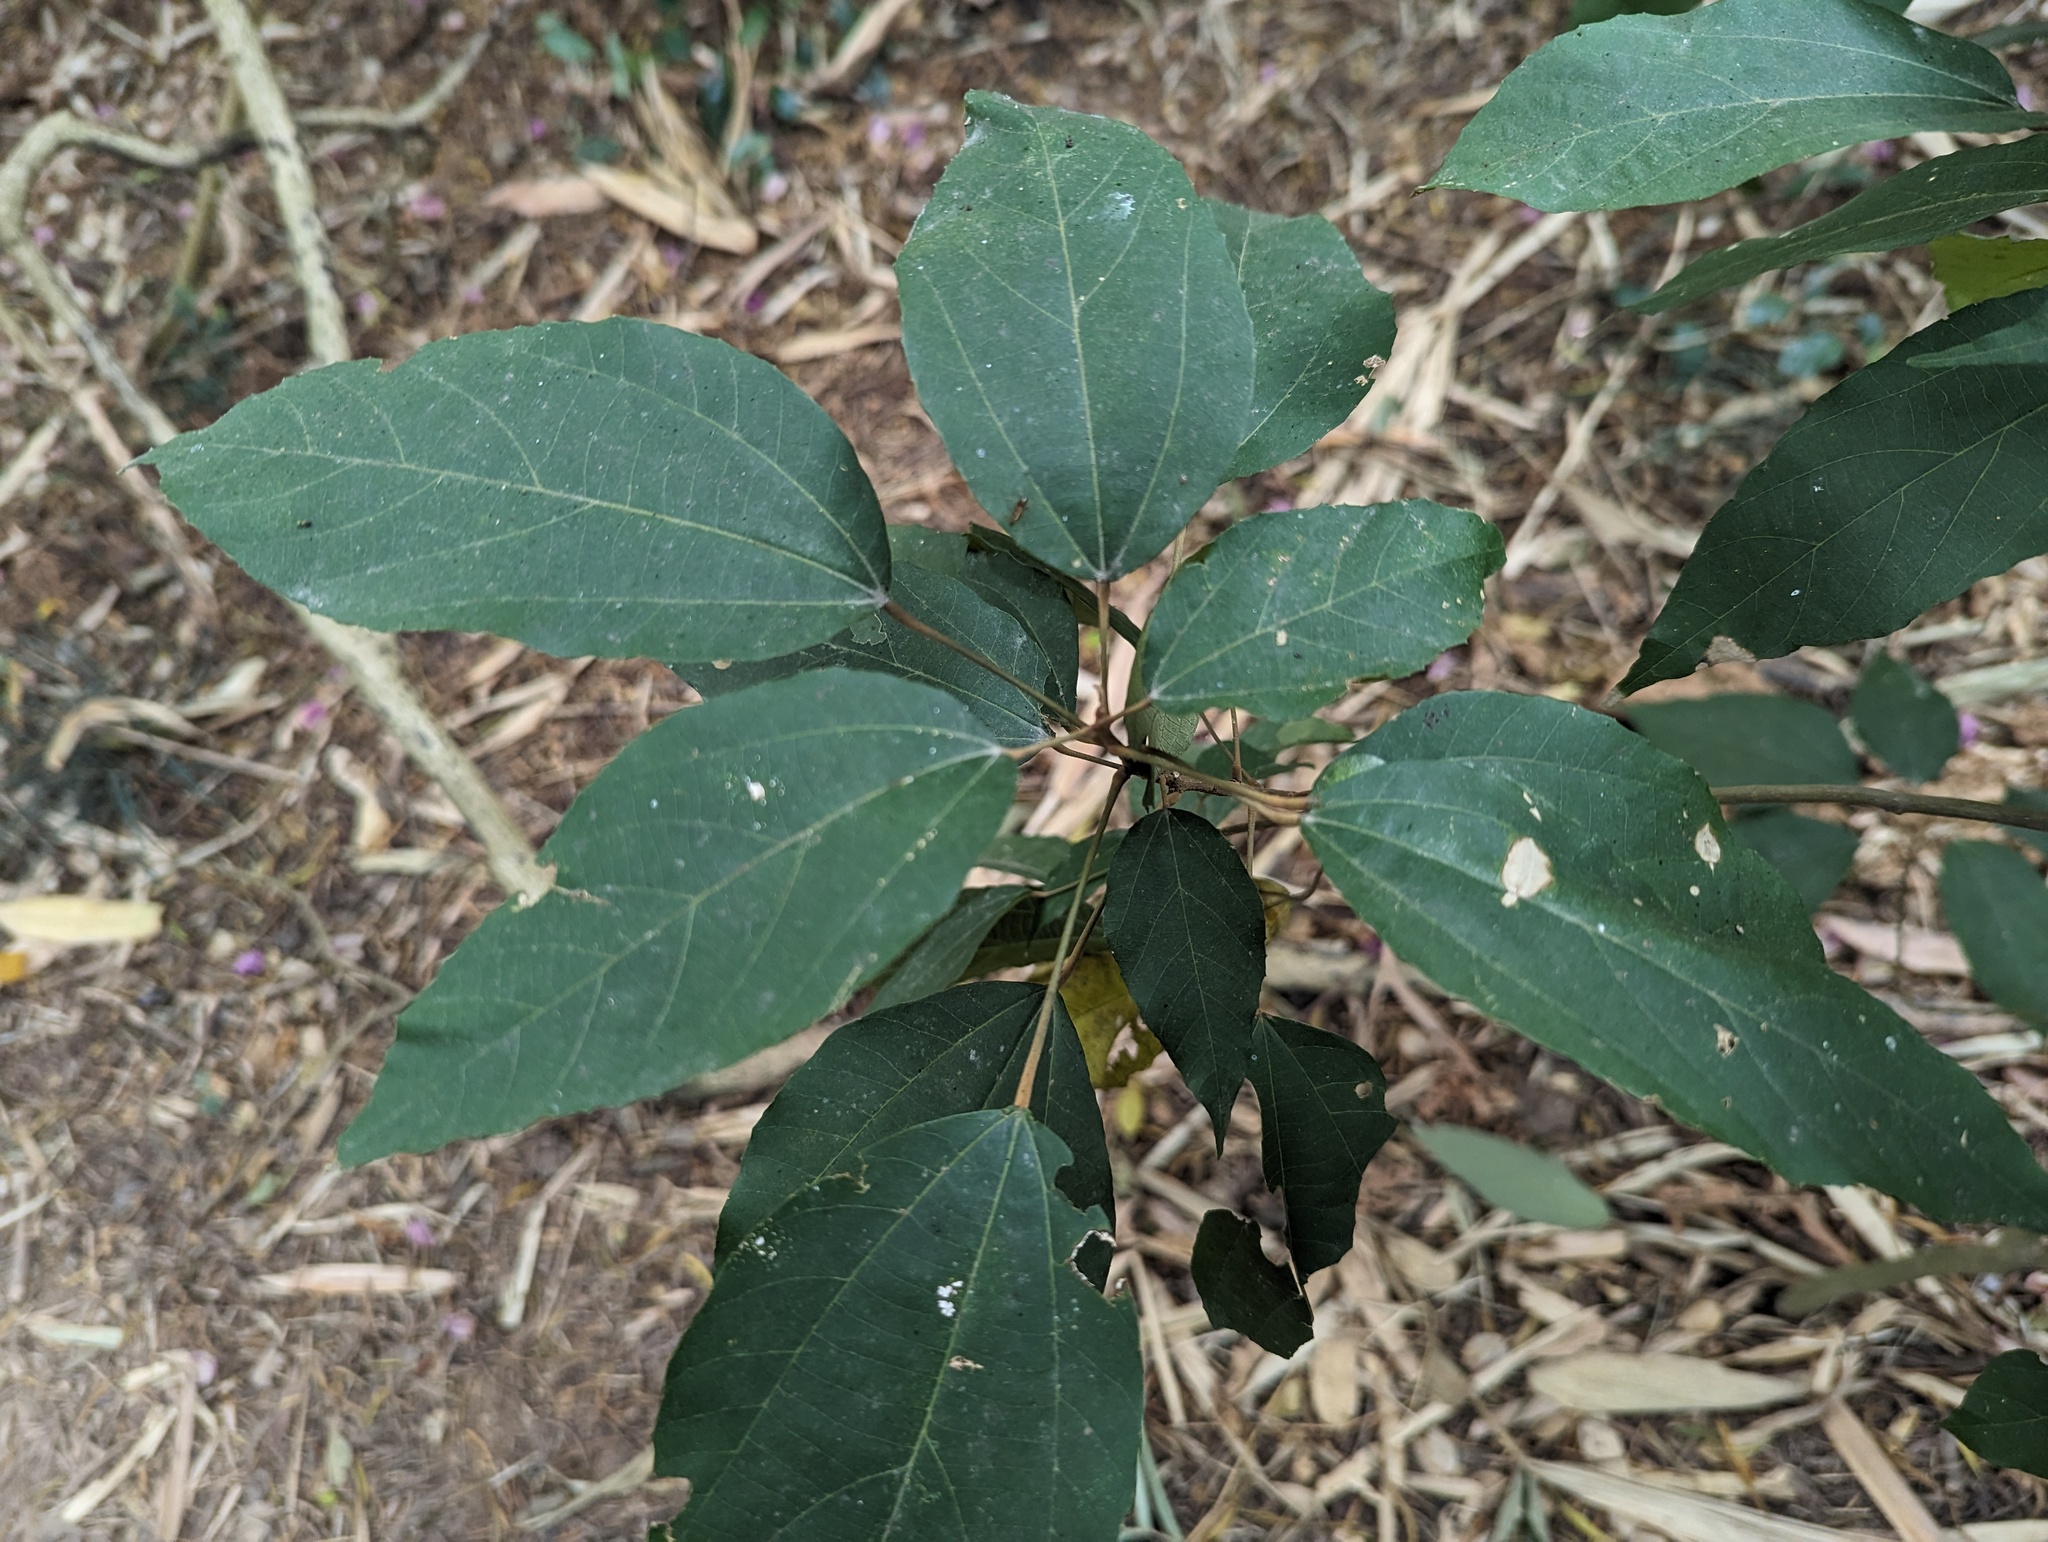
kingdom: Plantae
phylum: Tracheophyta
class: Magnoliopsida
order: Malpighiales
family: Euphorbiaceae
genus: Mallotus
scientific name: Mallotus philippensis
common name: Kamala tree
